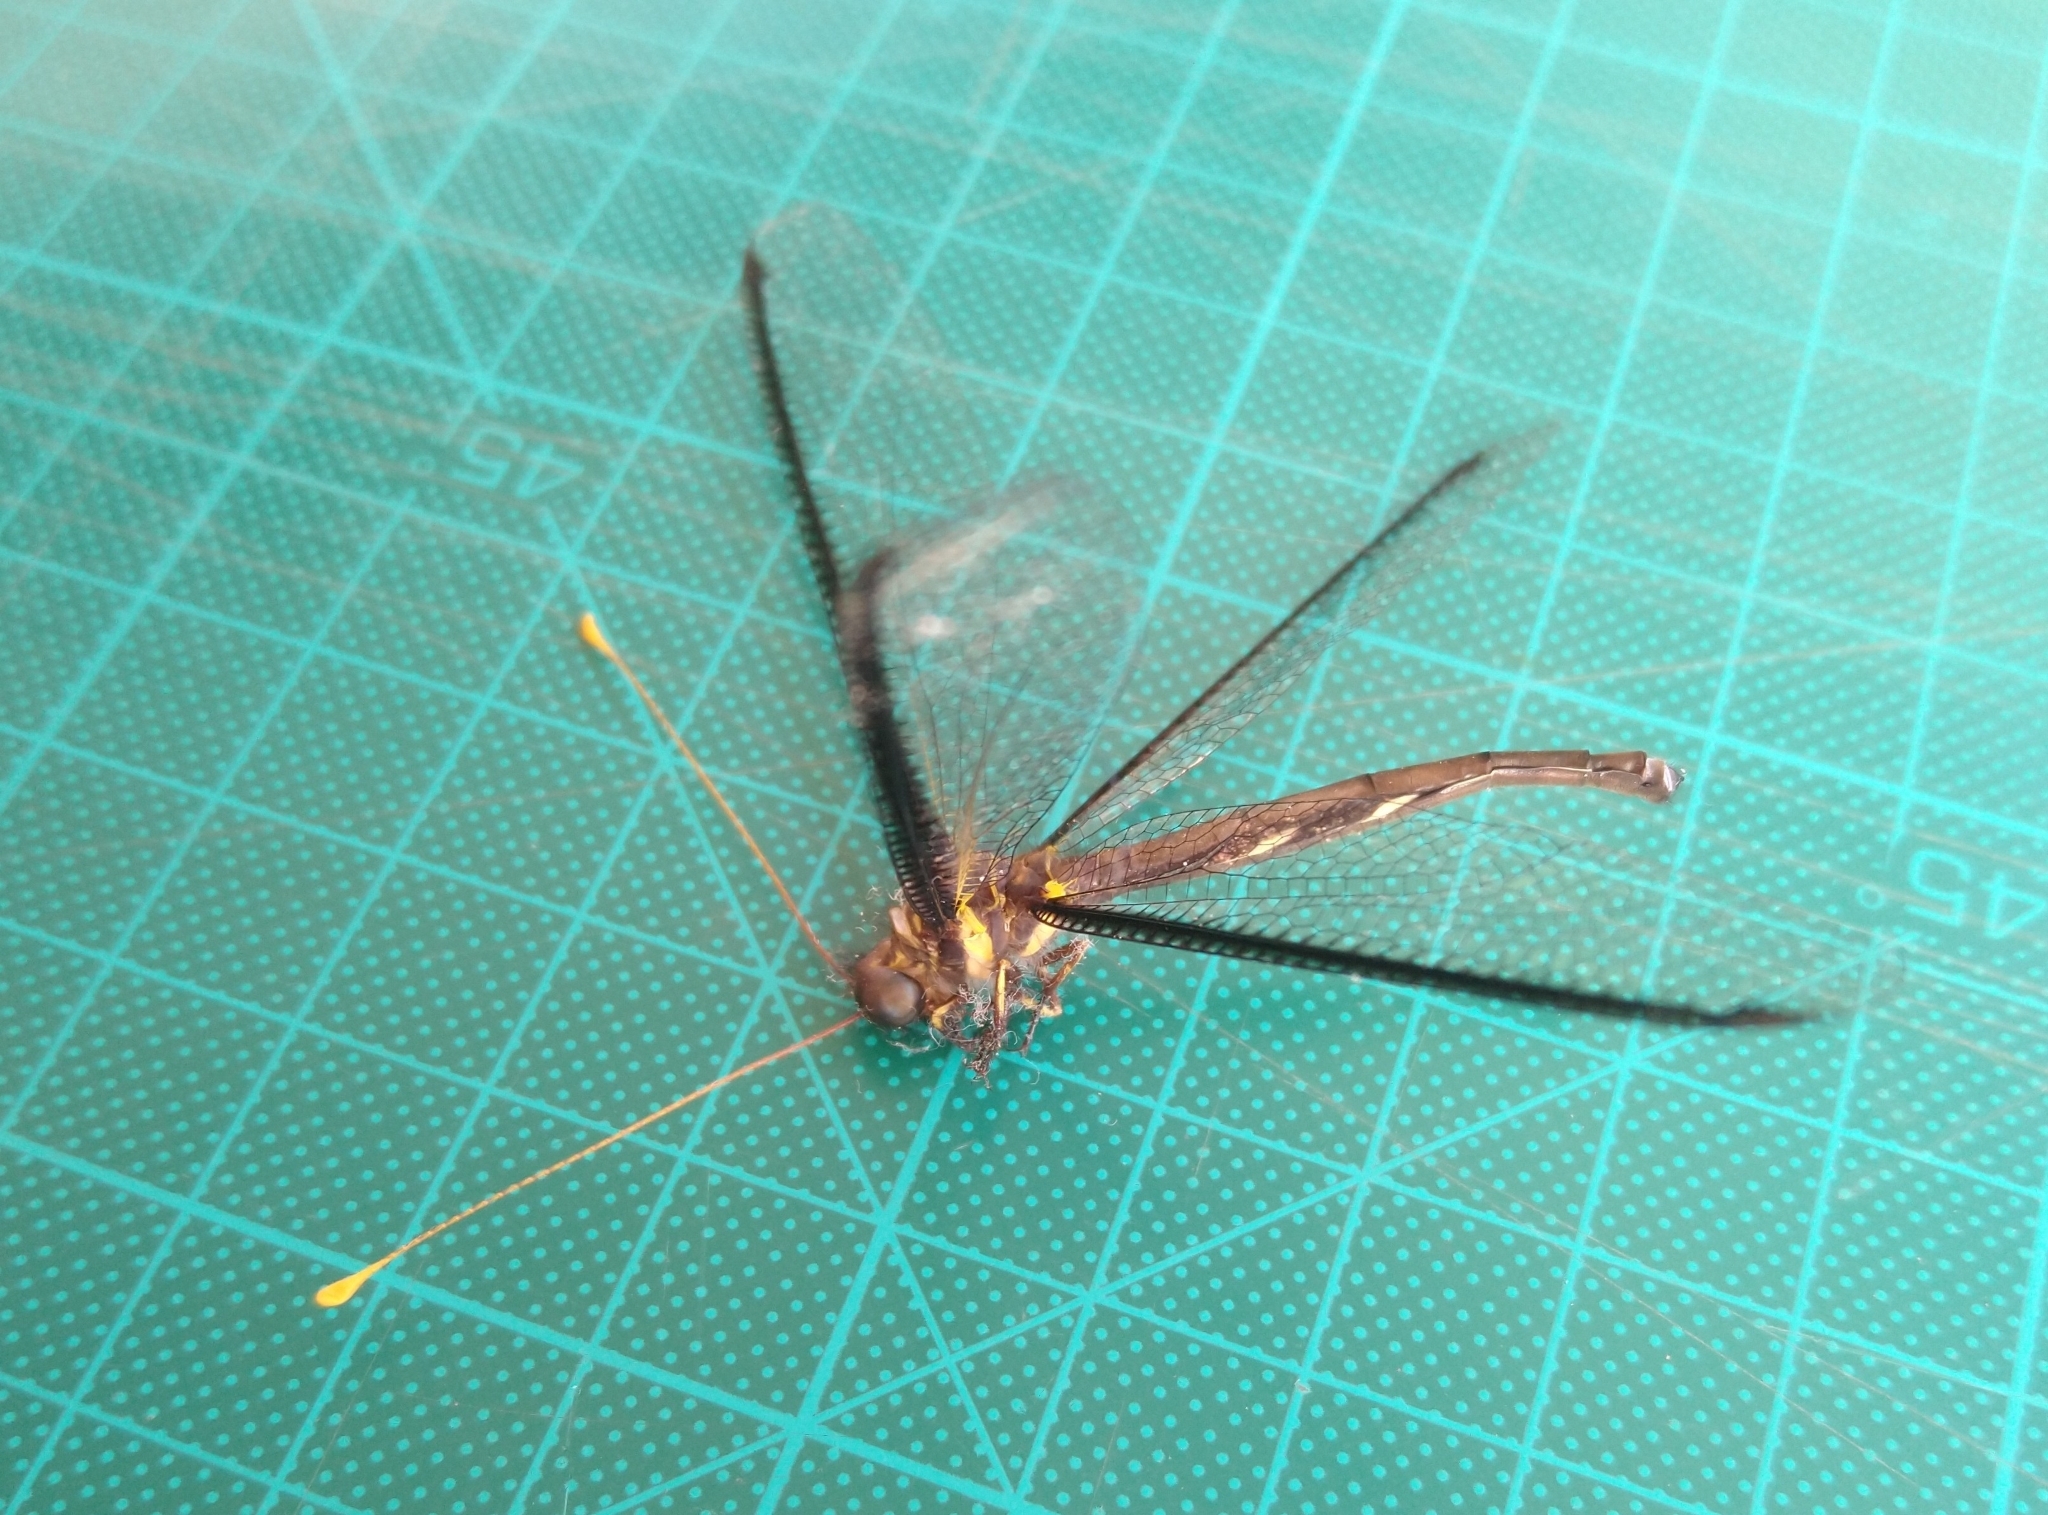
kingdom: Animalia
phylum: Arthropoda
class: Insecta
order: Neuroptera
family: Ascalaphidae
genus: Haploglenius
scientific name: Haploglenius handlirschi
